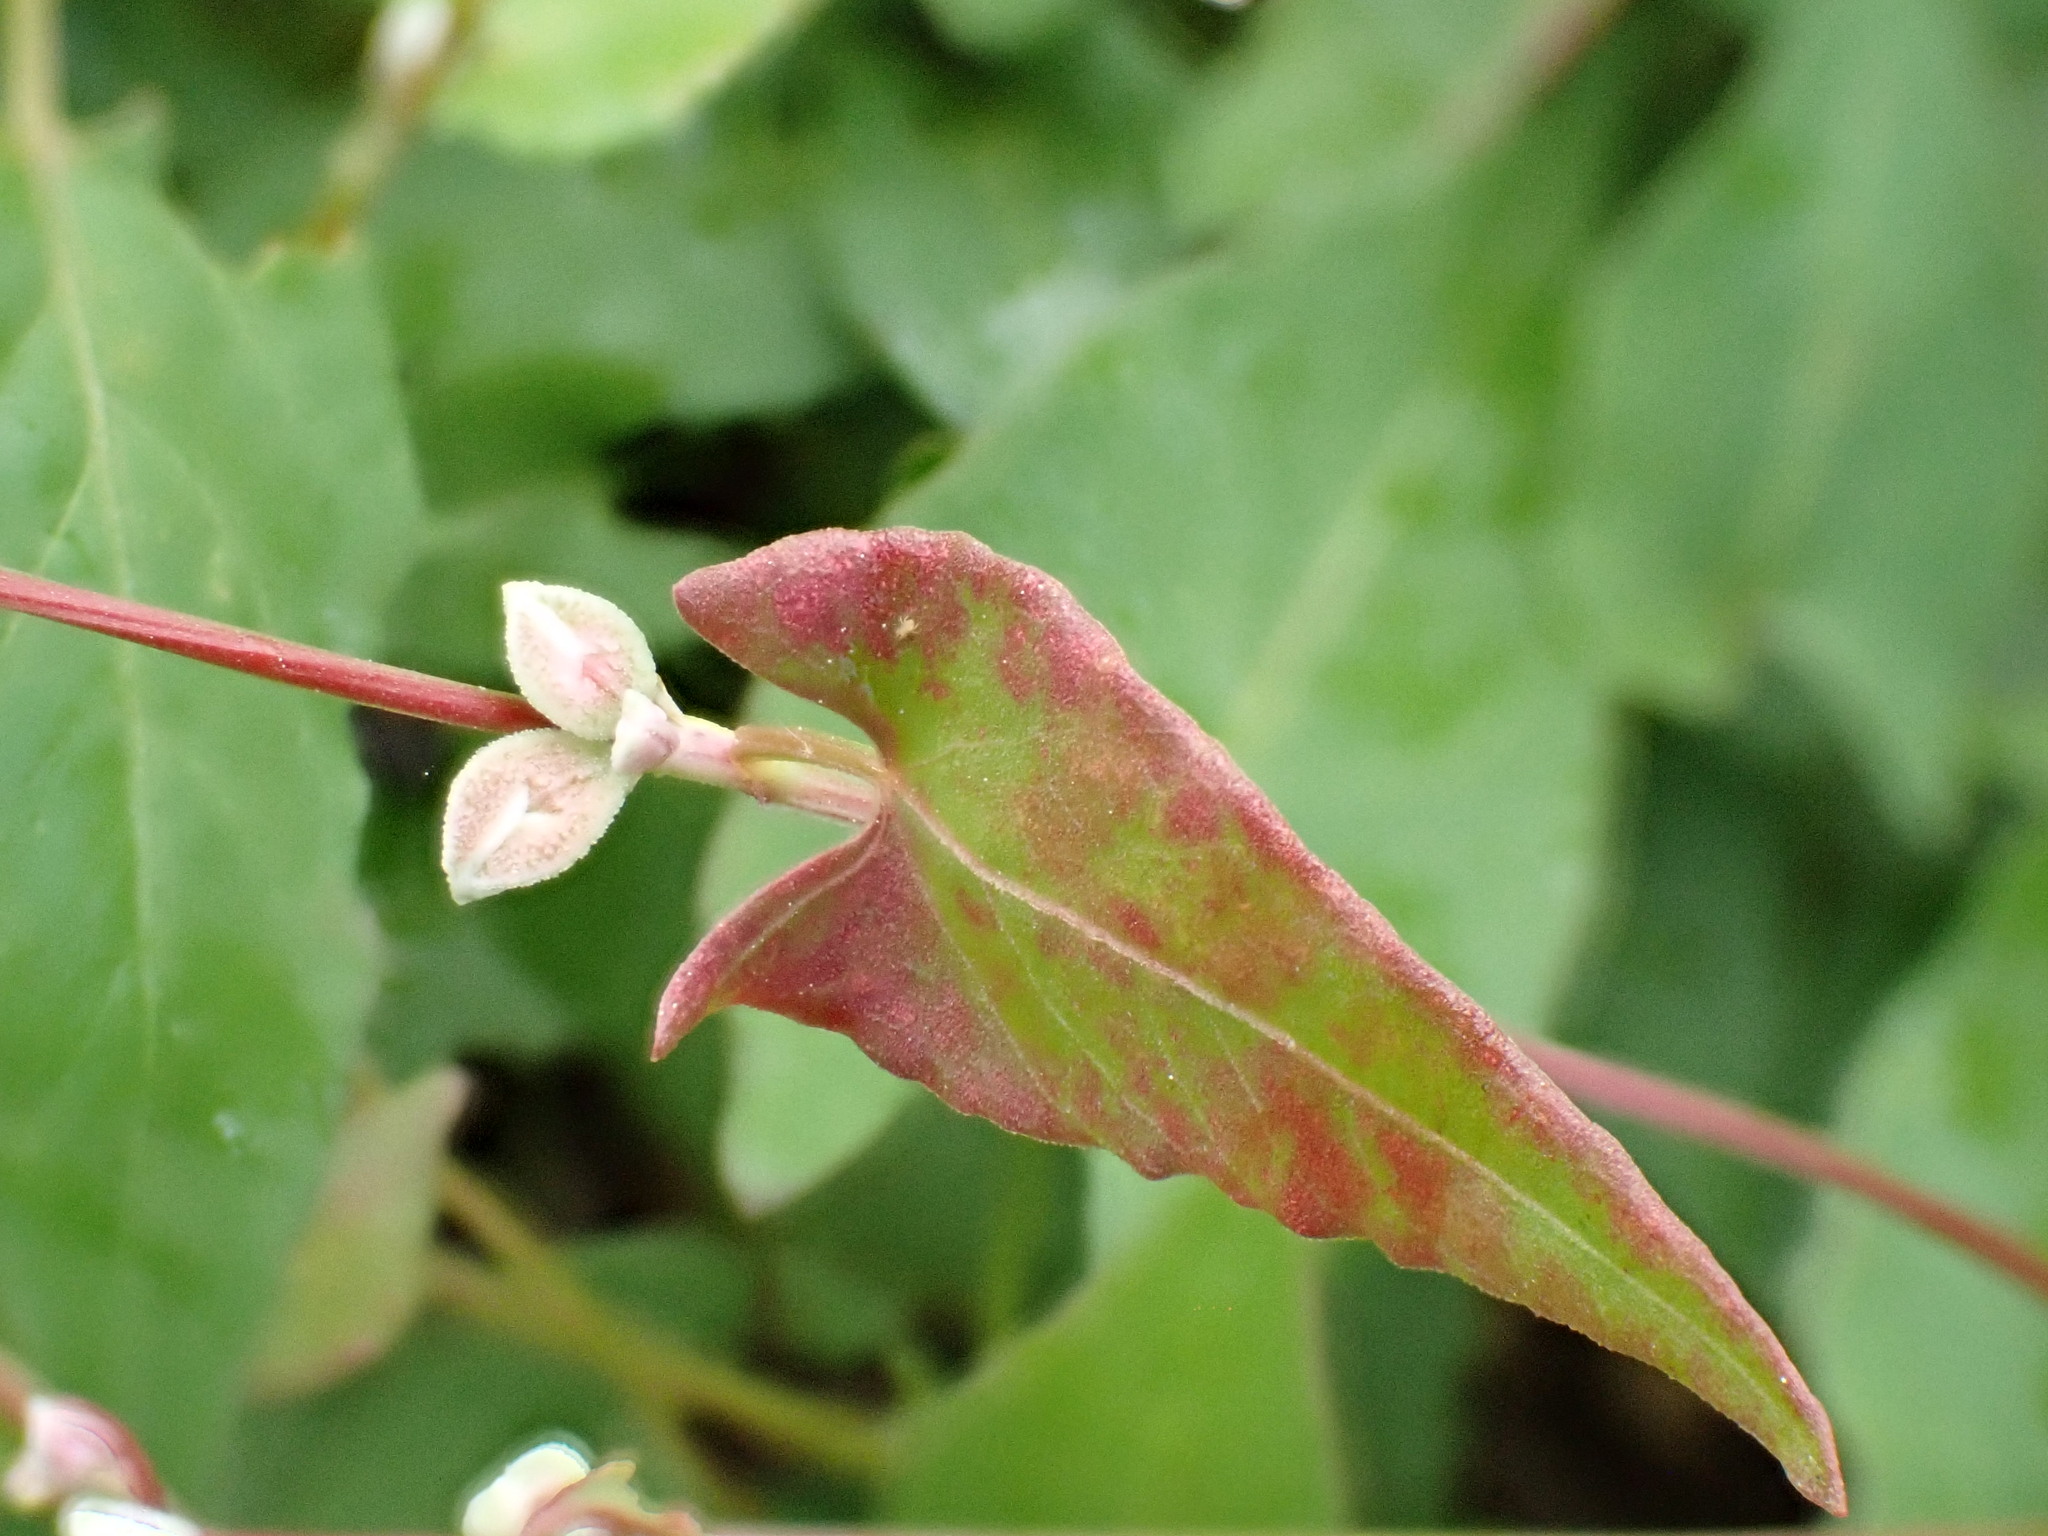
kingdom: Plantae
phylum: Tracheophyta
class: Magnoliopsida
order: Caryophyllales
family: Polygonaceae
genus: Fallopia
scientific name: Fallopia convolvulus
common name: Black bindweed
